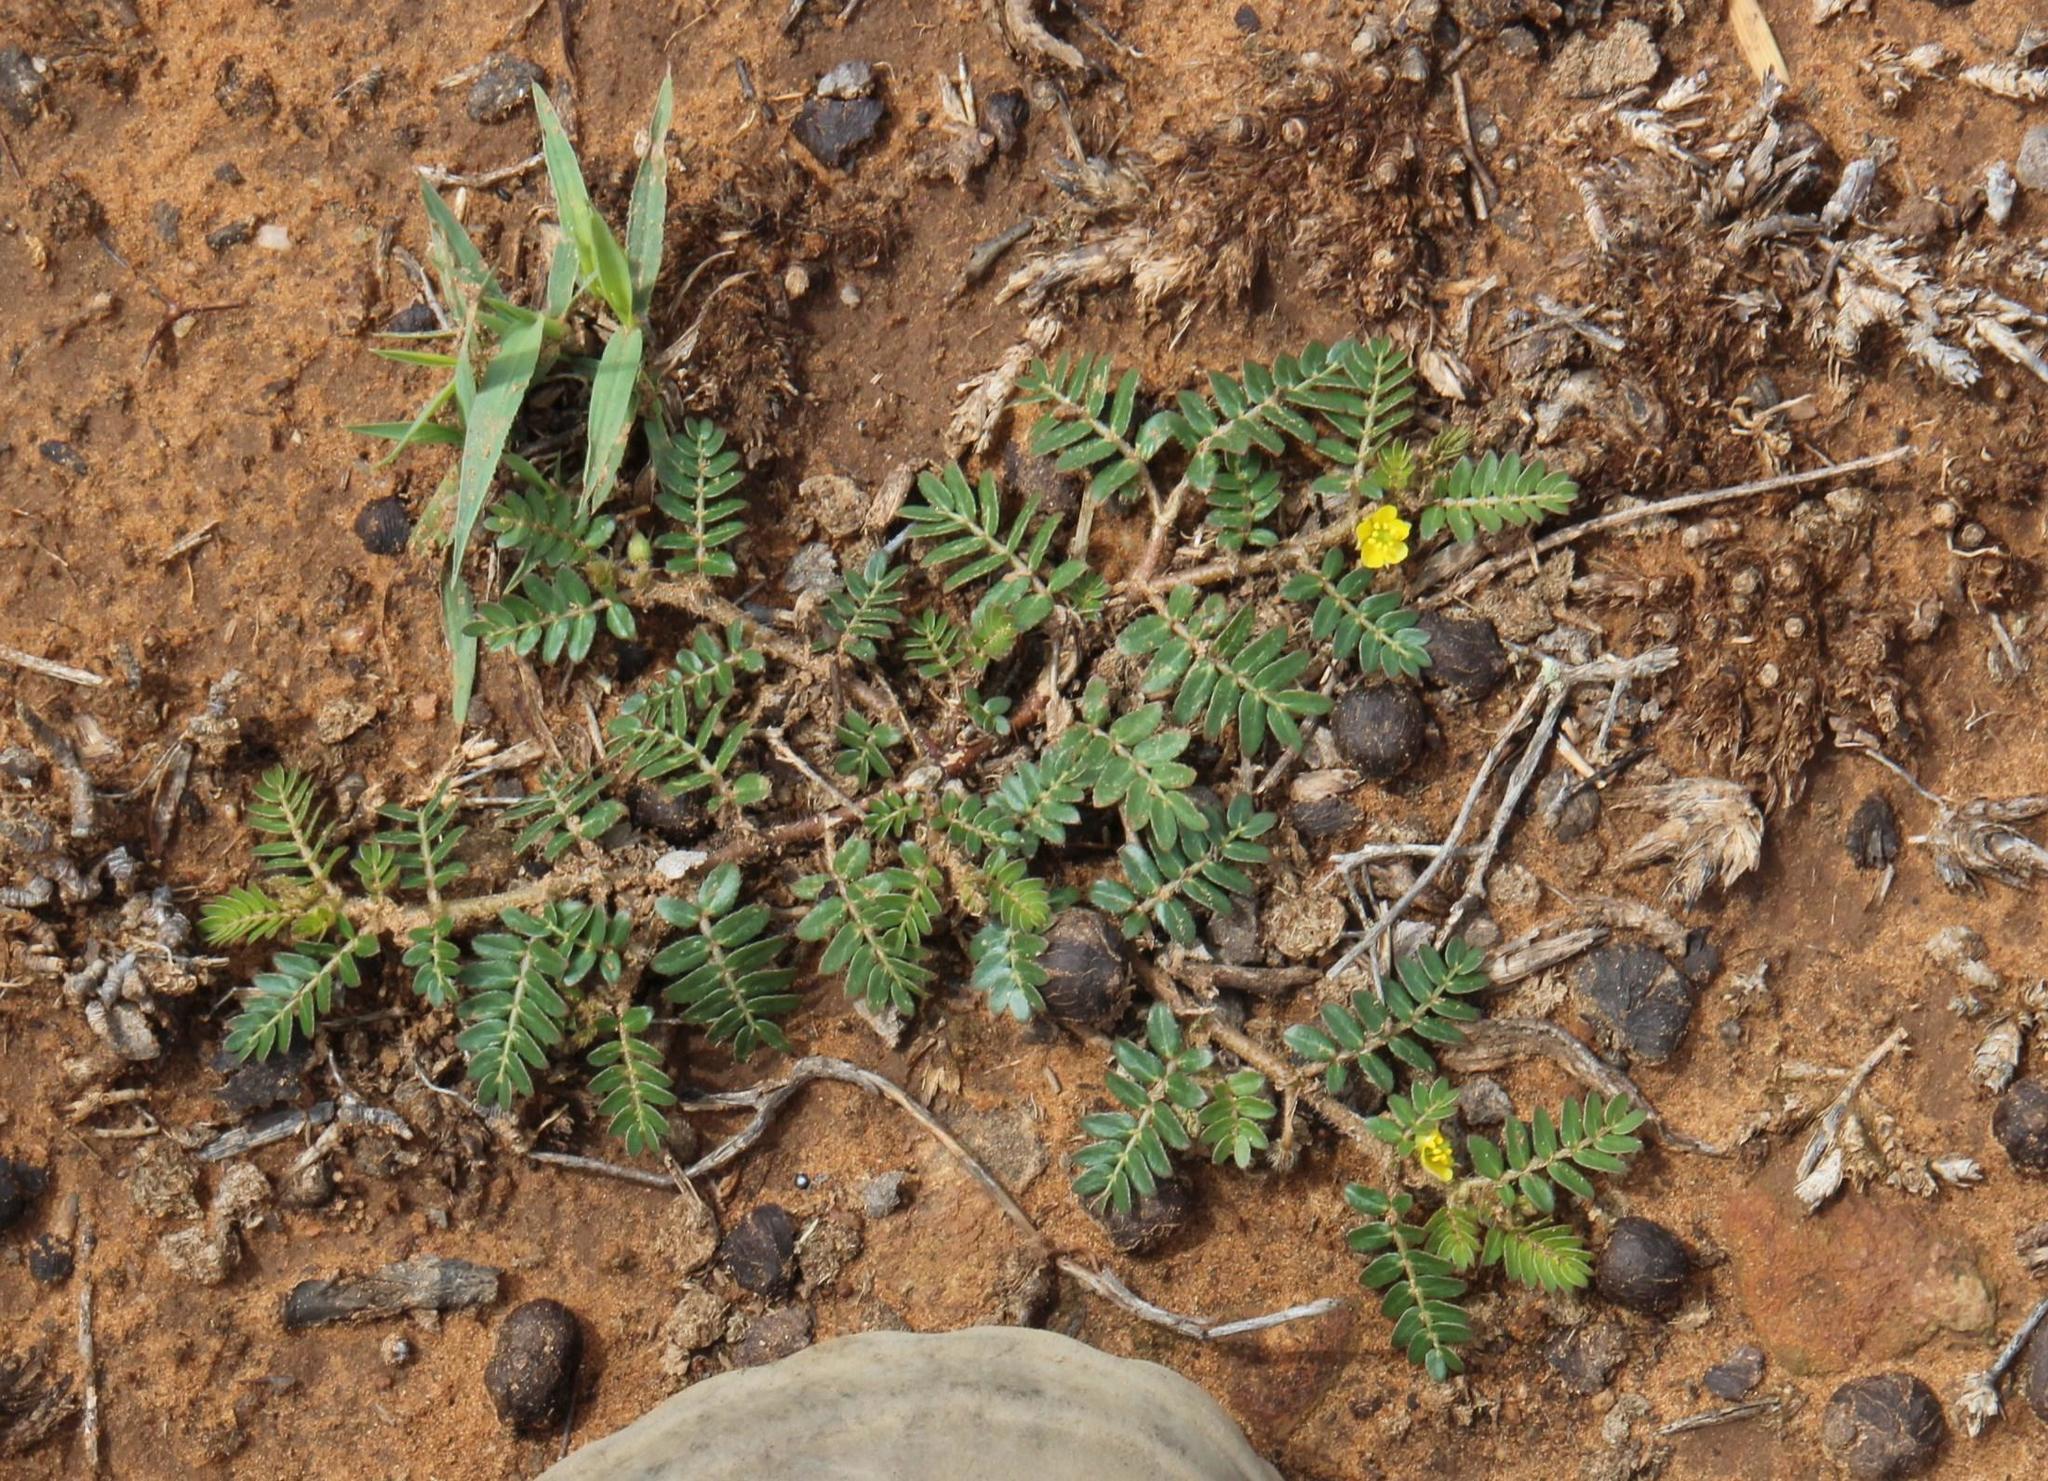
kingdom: Plantae
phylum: Tracheophyta
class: Magnoliopsida
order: Zygophyllales
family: Zygophyllaceae
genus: Tribulus
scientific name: Tribulus terrestris
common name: Puncturevine
